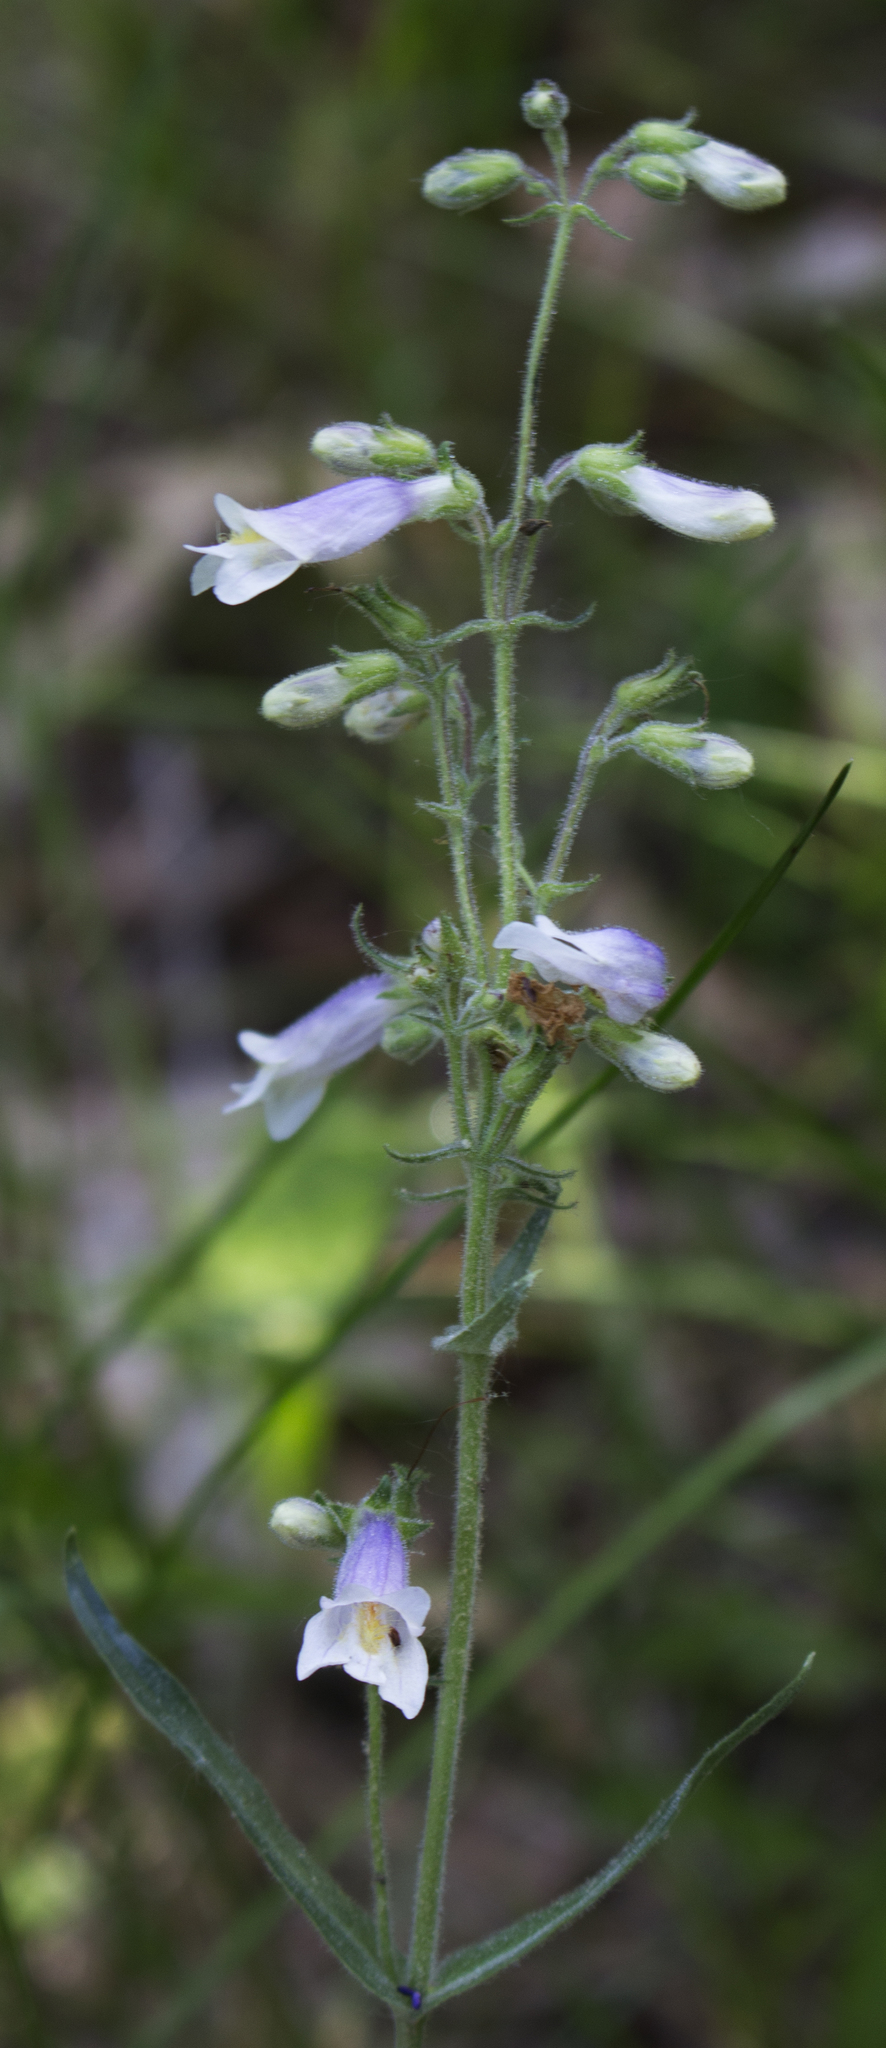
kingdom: Plantae
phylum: Tracheophyta
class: Magnoliopsida
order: Lamiales
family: Plantaginaceae
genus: Penstemon
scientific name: Penstemon gracilis
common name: Slender beardtongue
